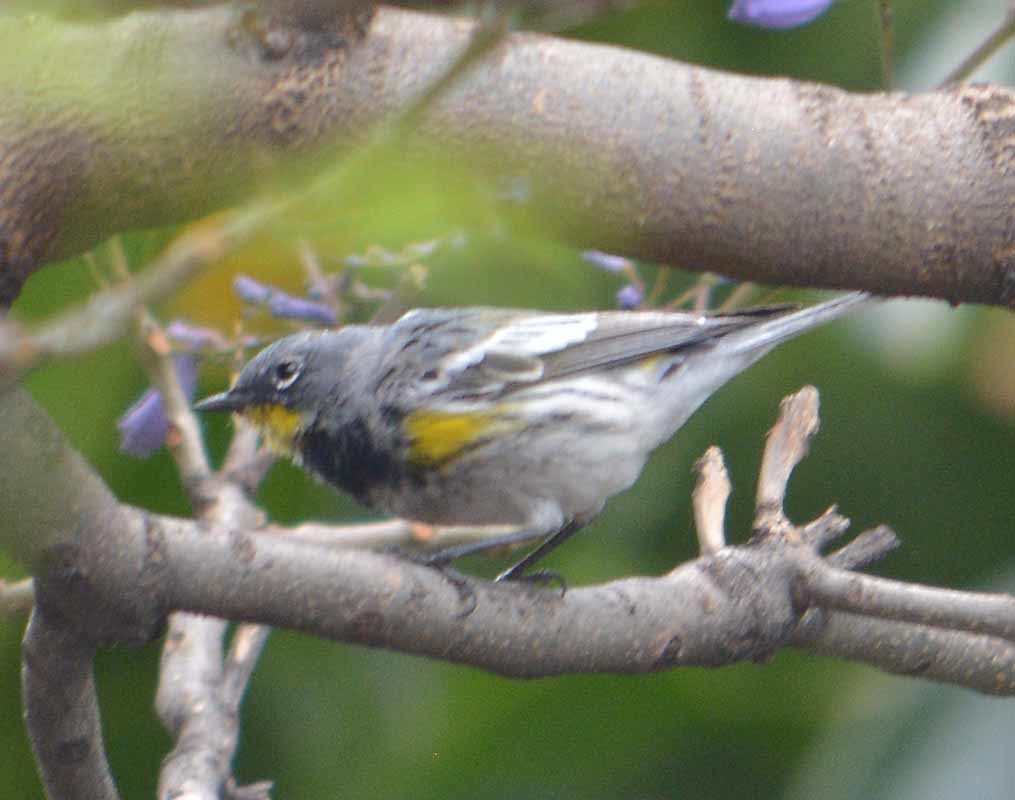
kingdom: Animalia
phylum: Chordata
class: Aves
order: Passeriformes
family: Parulidae
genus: Setophaga
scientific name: Setophaga coronata
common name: Myrtle warbler
